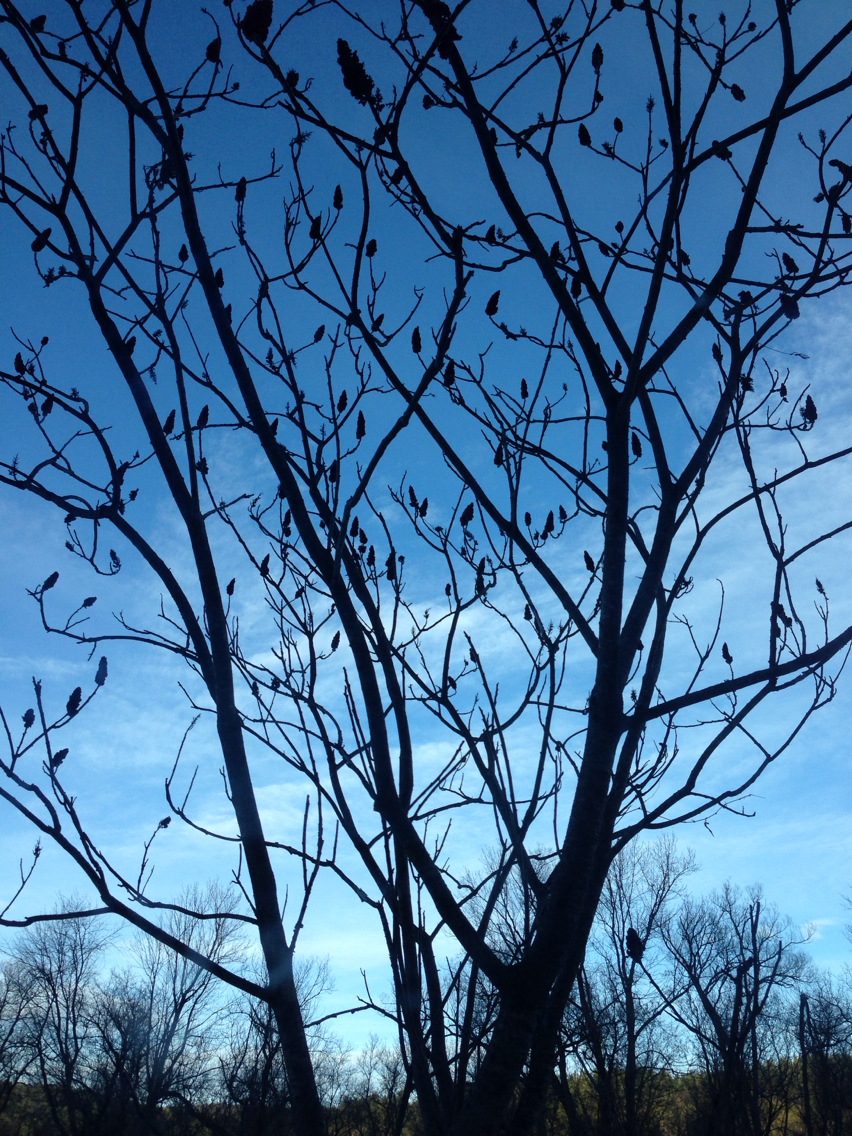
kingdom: Plantae
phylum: Tracheophyta
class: Magnoliopsida
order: Sapindales
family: Anacardiaceae
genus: Rhus
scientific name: Rhus typhina
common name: Staghorn sumac
